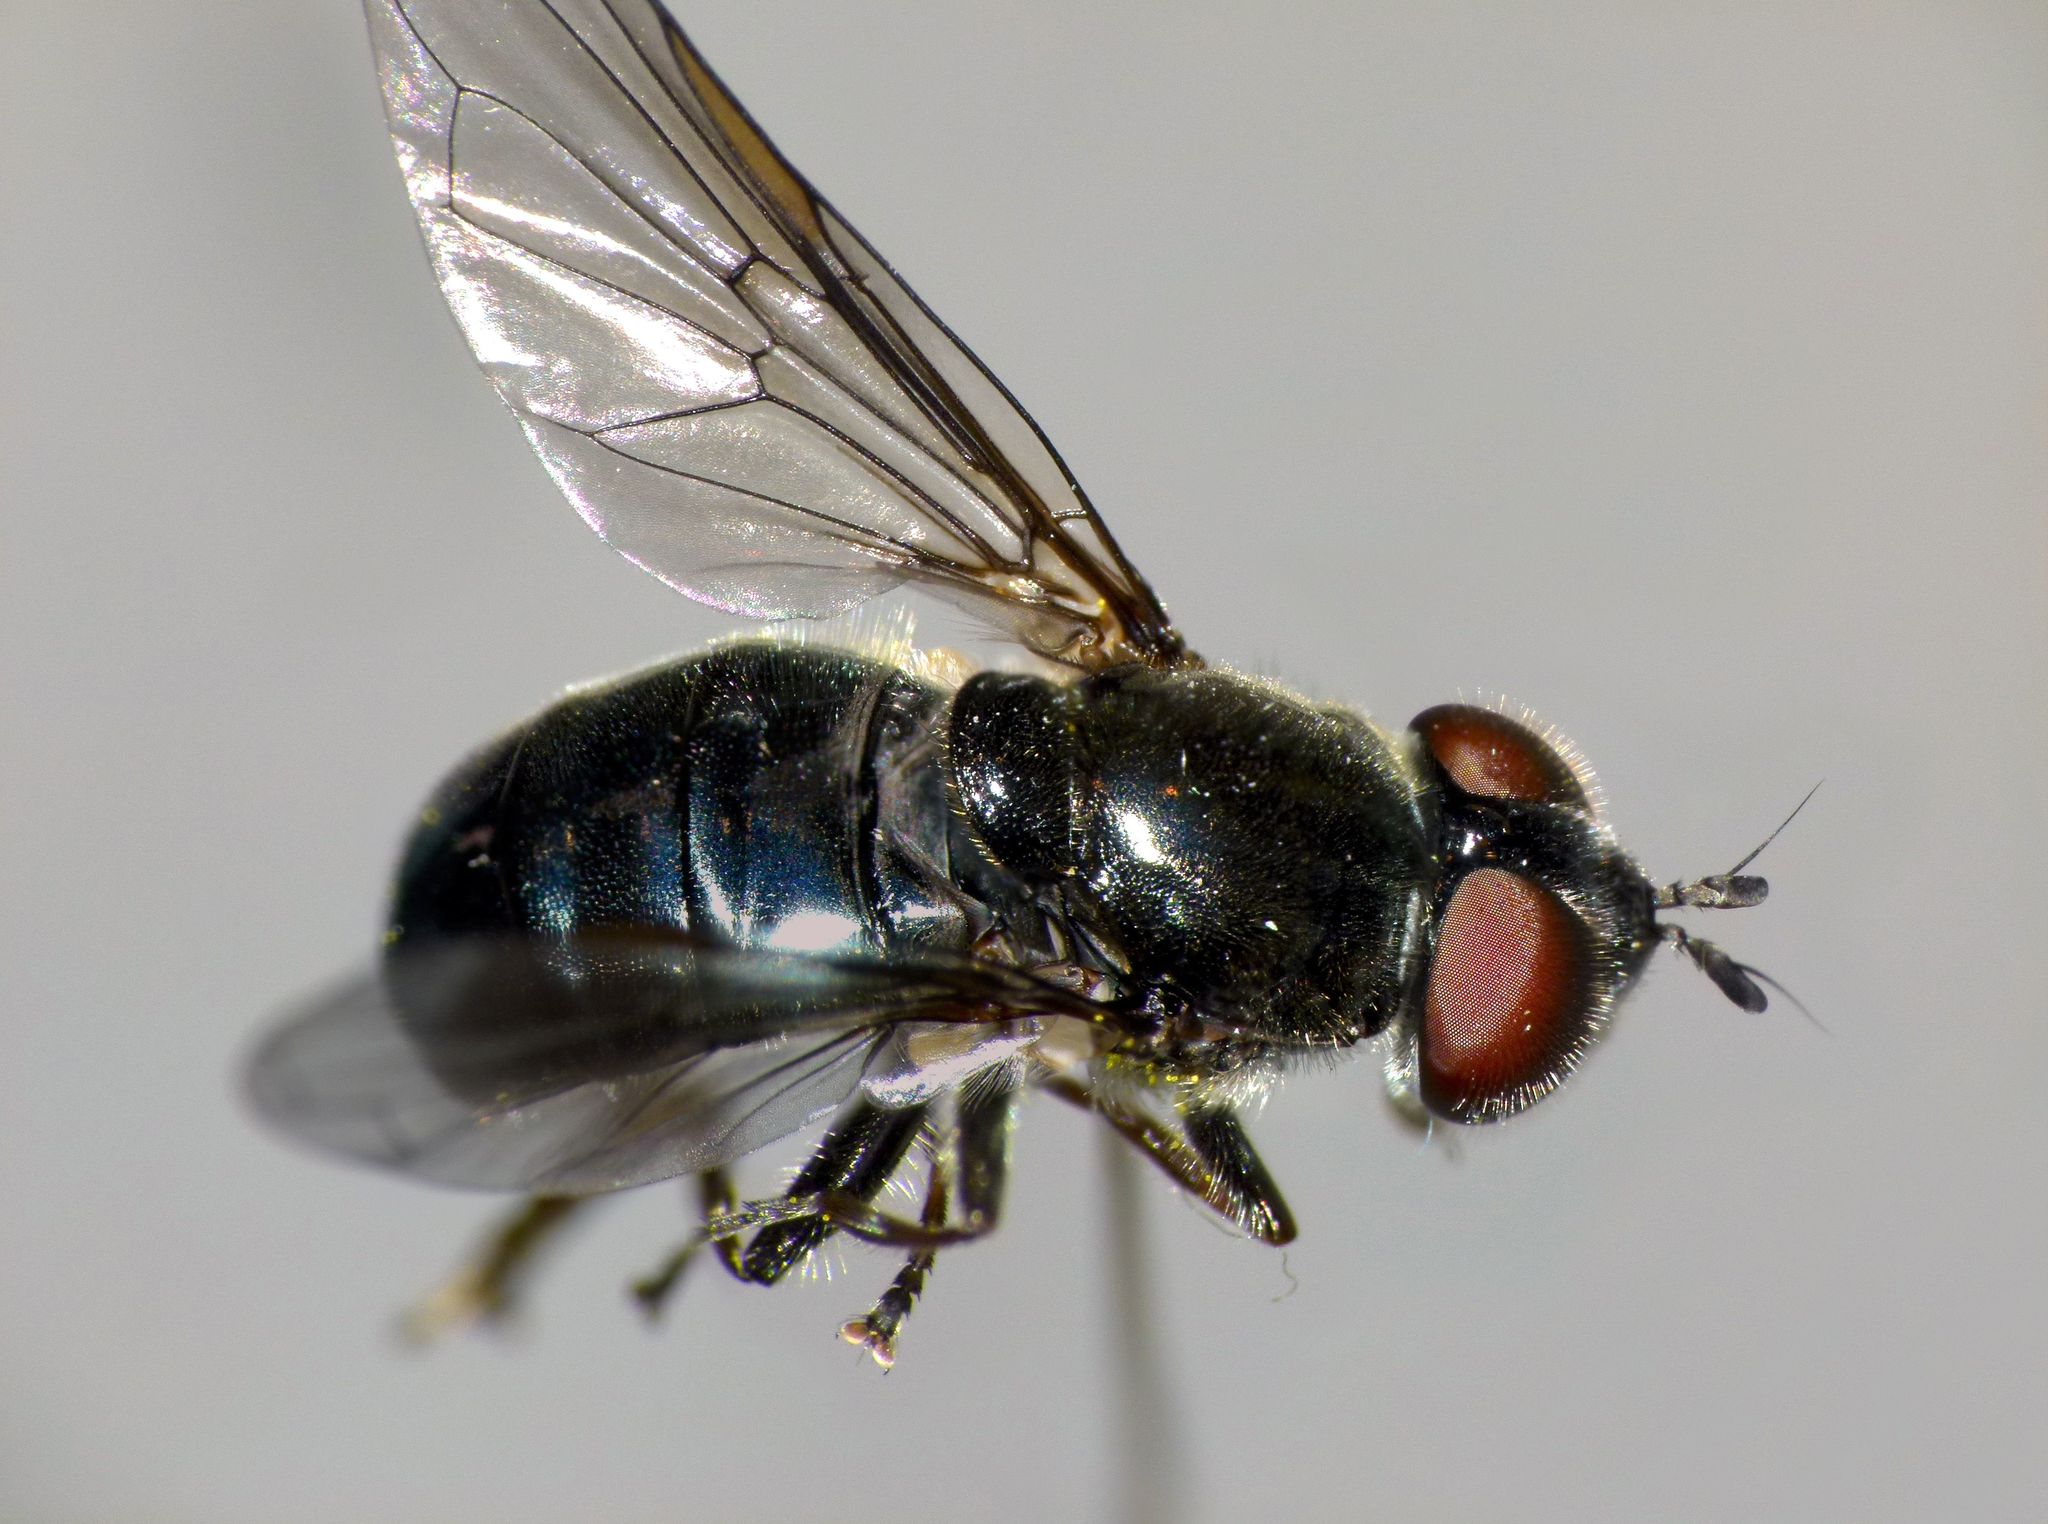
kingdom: Animalia
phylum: Arthropoda
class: Insecta
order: Diptera
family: Syrphidae
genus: Psilota
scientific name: Psilota decessum
